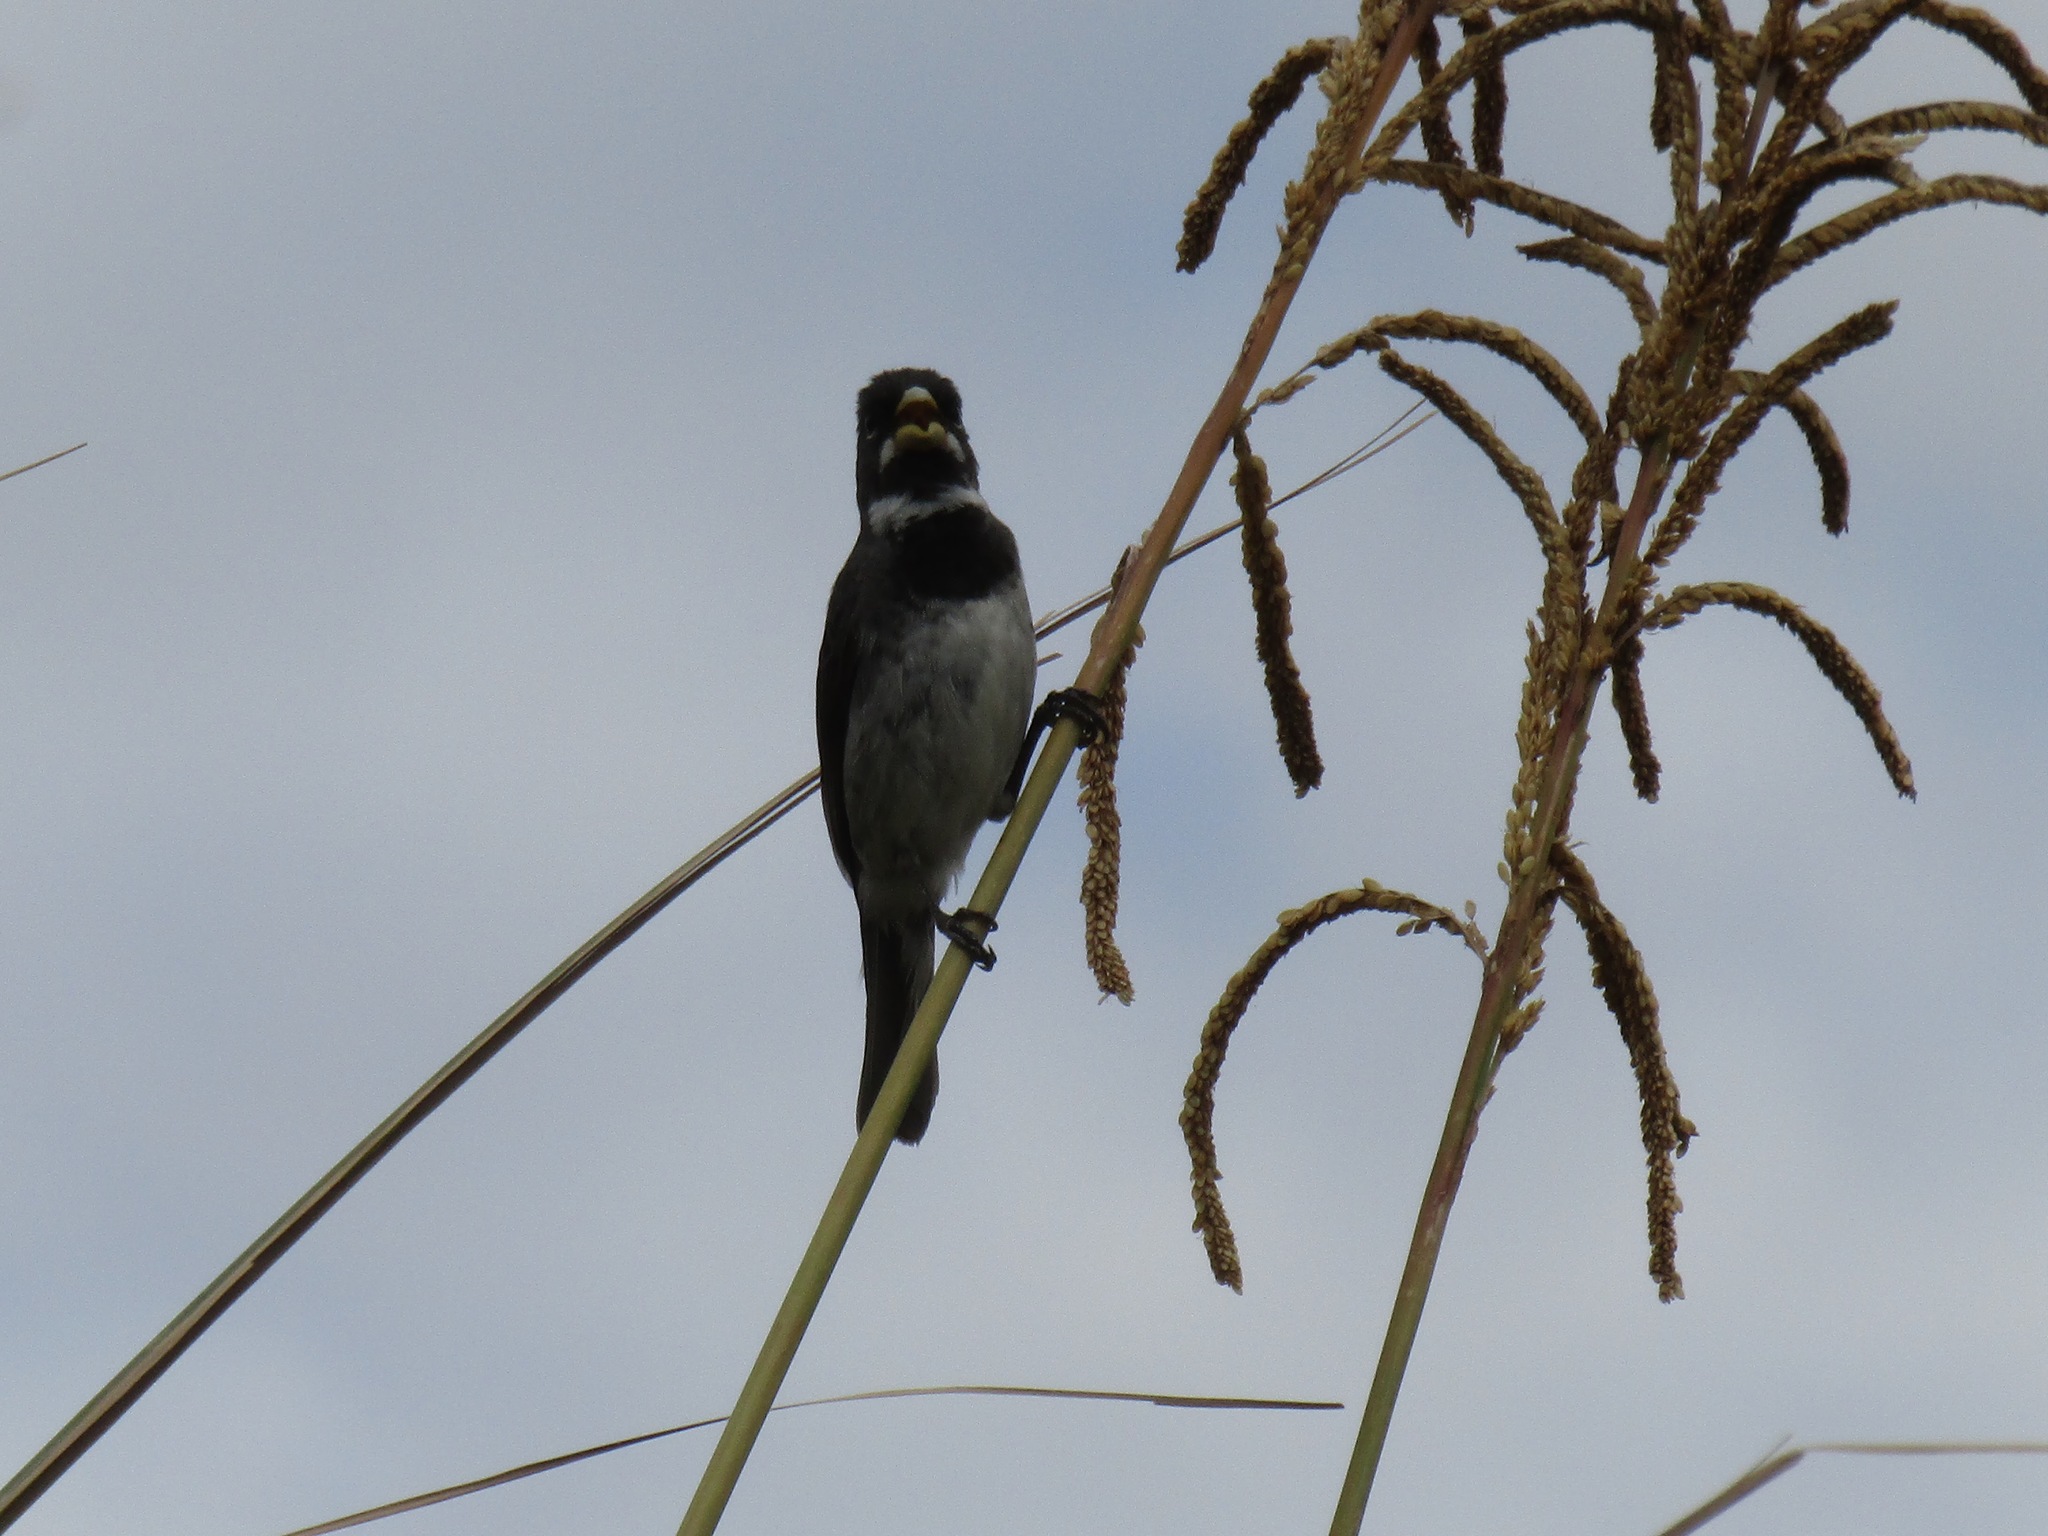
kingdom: Animalia
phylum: Chordata
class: Aves
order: Passeriformes
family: Thraupidae
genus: Sporophila
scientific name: Sporophila caerulescens
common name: Double-collared seedeater
